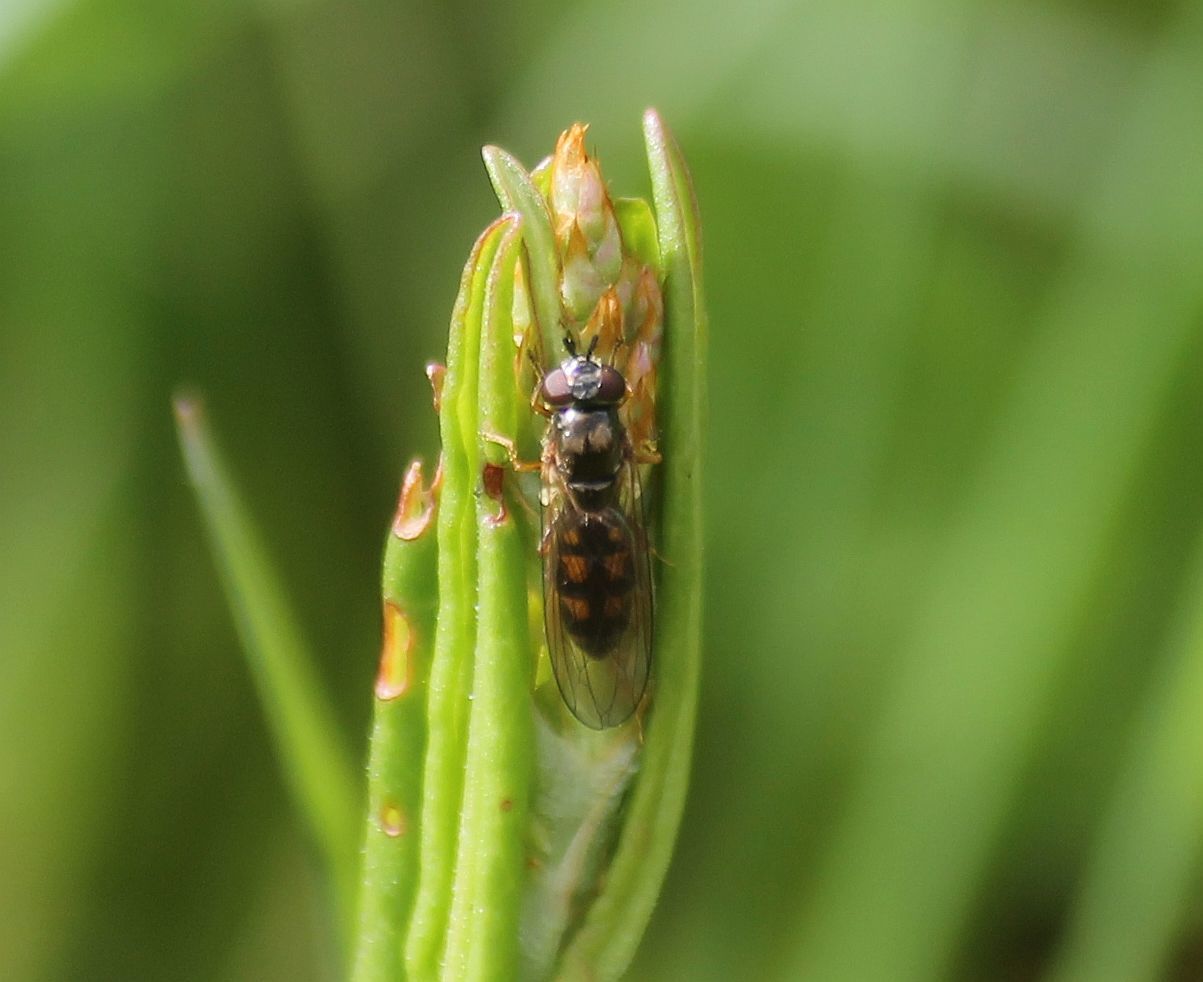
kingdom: Animalia
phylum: Arthropoda
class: Insecta
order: Diptera
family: Syrphidae
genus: Melanostoma
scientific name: Melanostoma scalare
